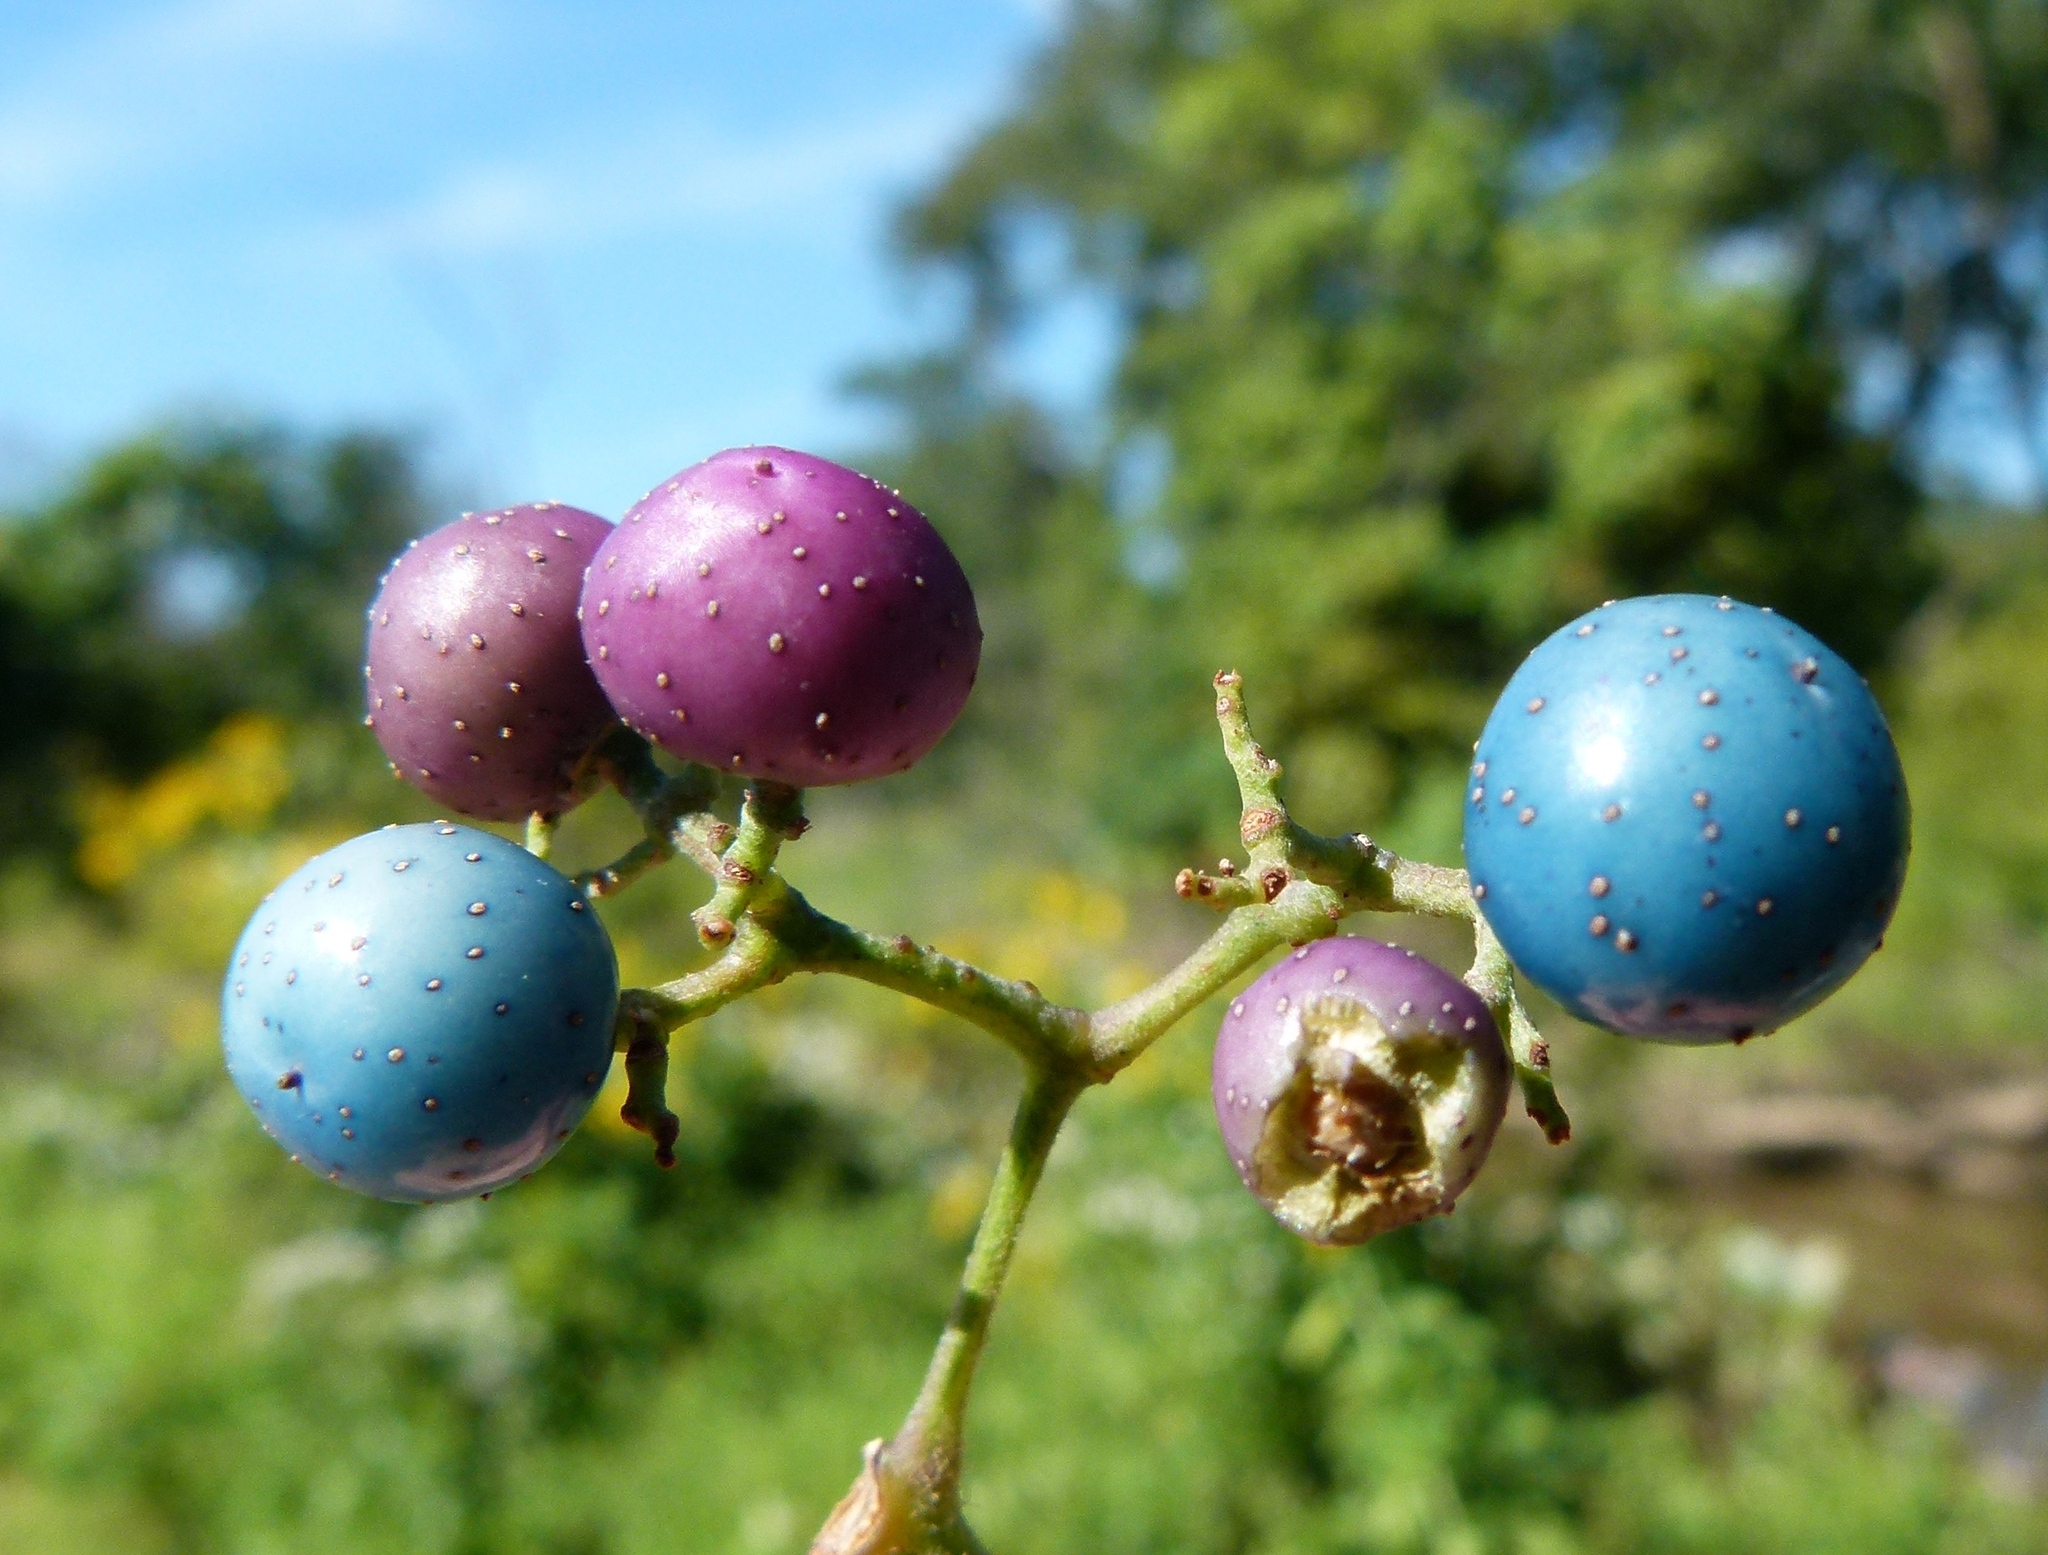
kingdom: Plantae
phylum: Tracheophyta
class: Magnoliopsida
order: Vitales
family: Vitaceae
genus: Ampelopsis
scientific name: Ampelopsis glandulosa
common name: Amur peppervine
